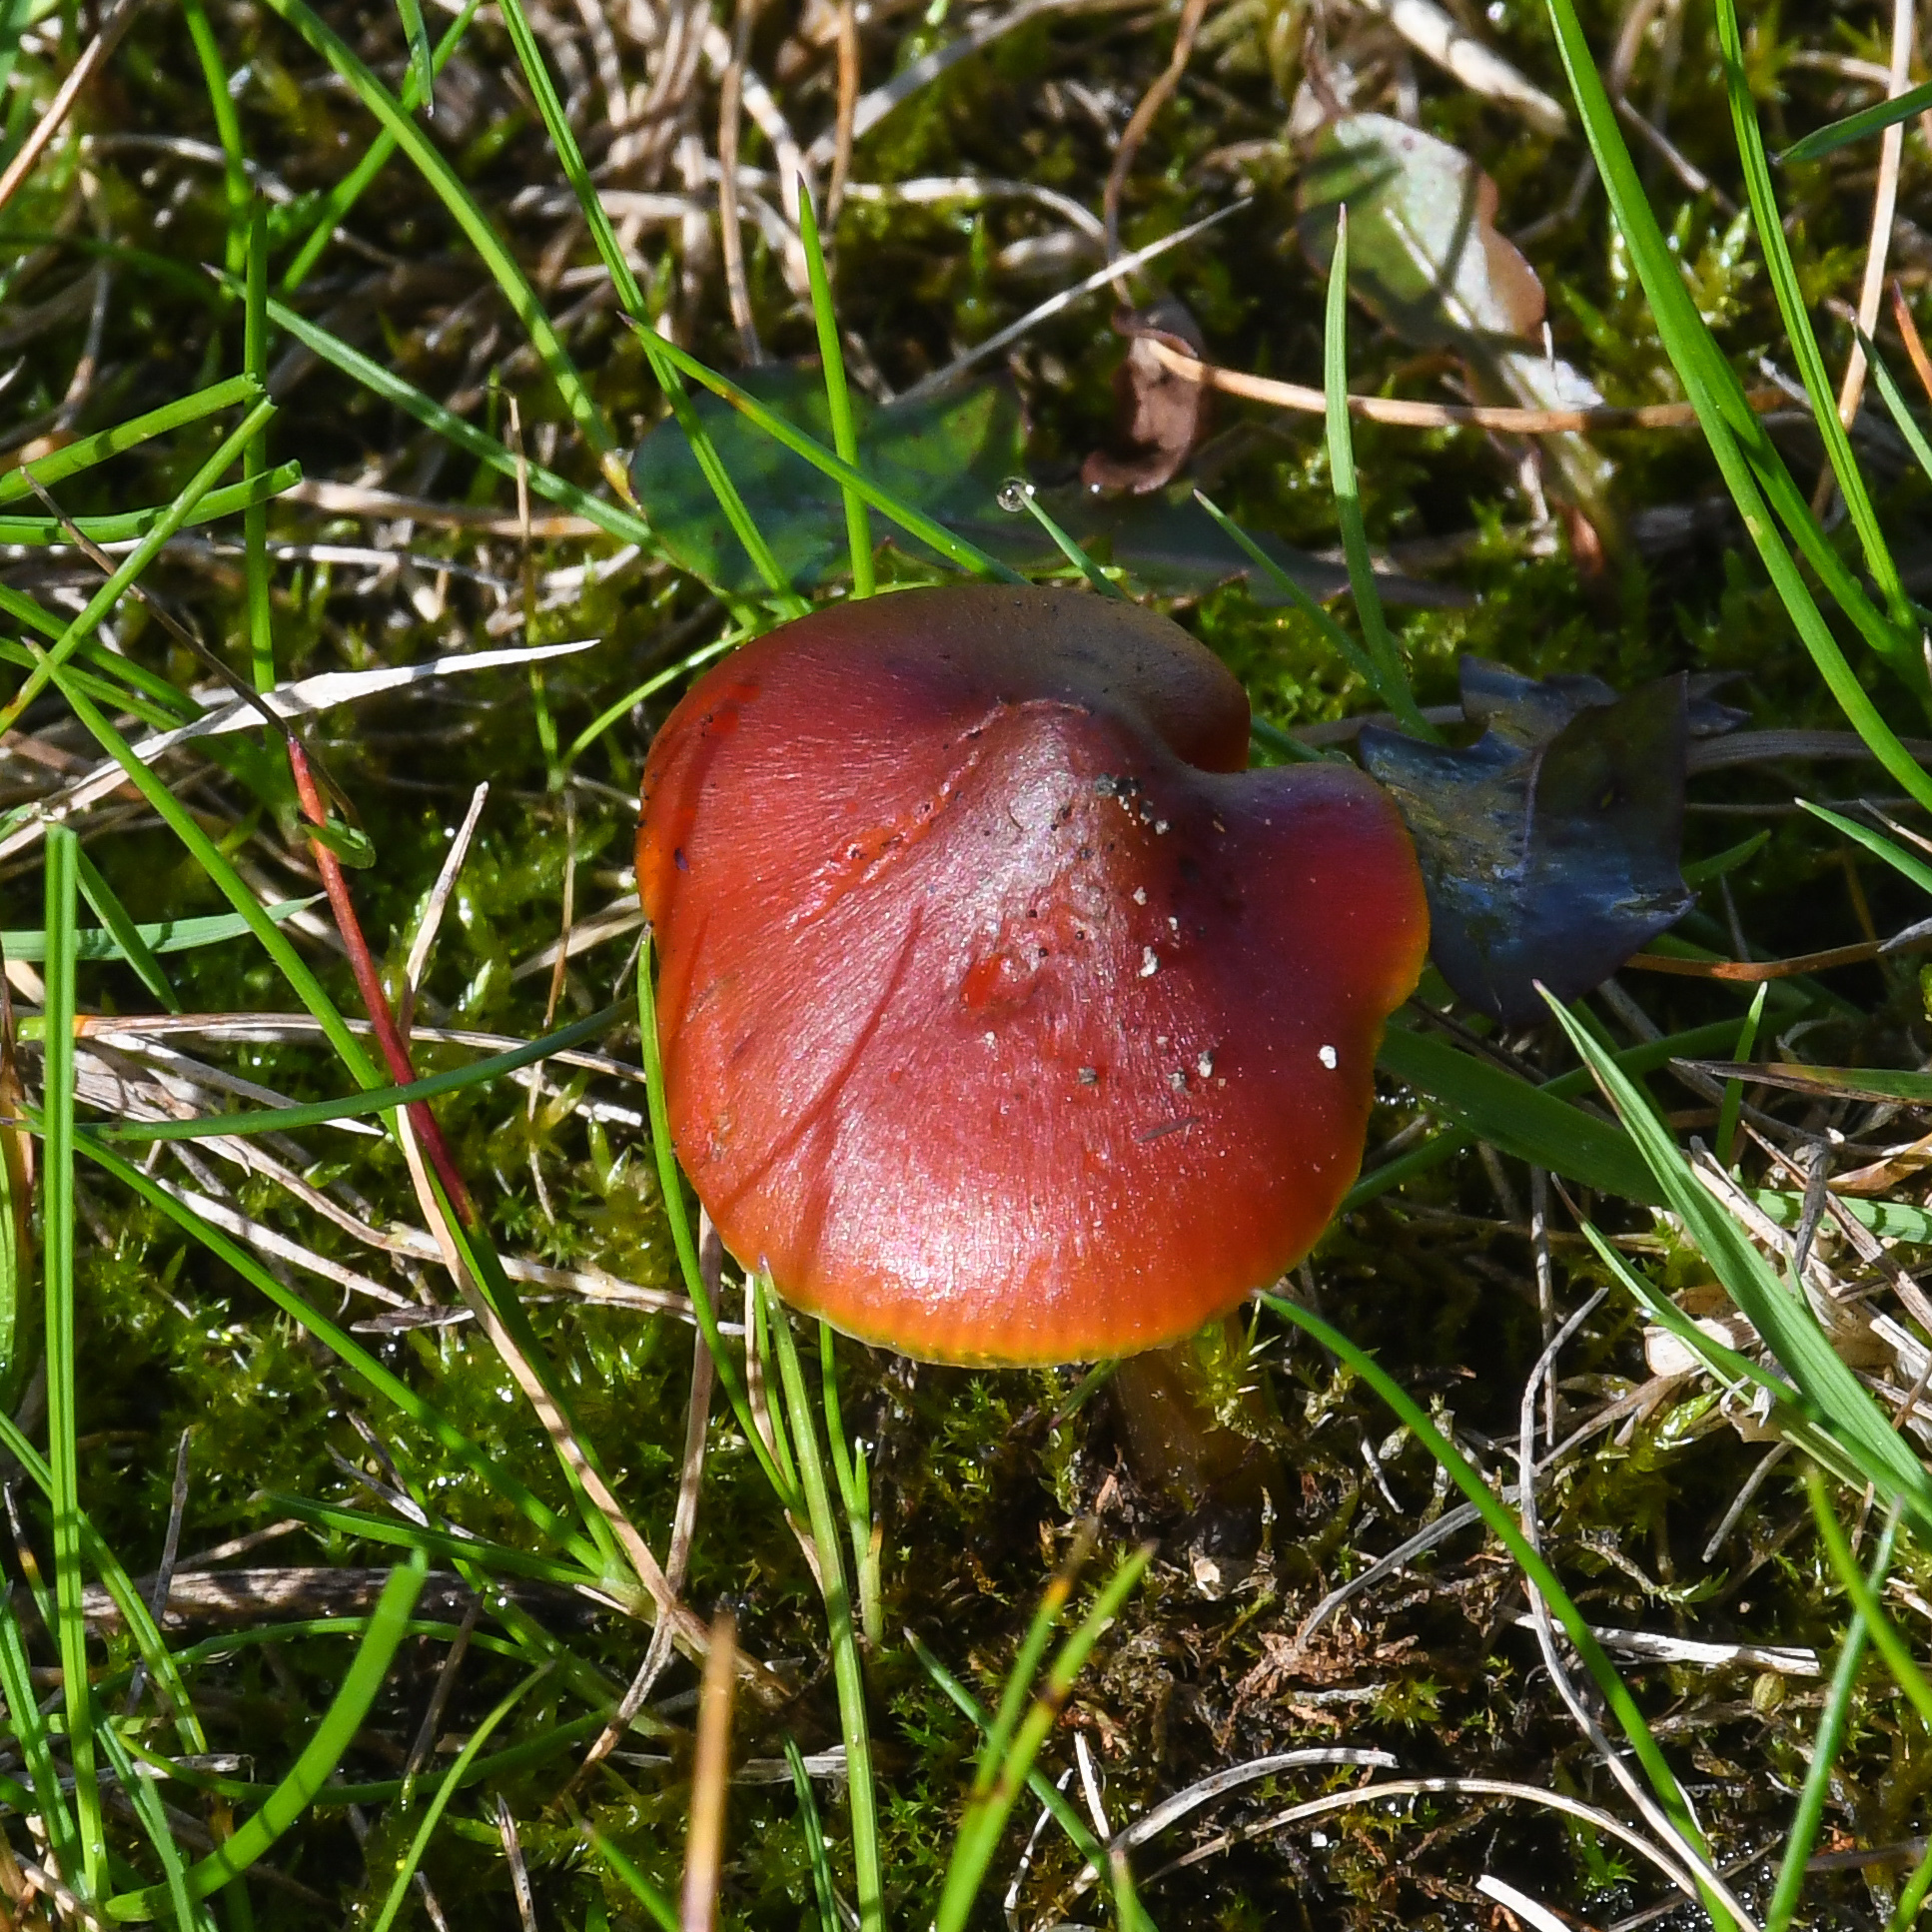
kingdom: Fungi
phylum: Basidiomycota
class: Agaricomycetes
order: Agaricales
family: Hygrophoraceae
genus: Hygrocybe
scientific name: Hygrocybe conica
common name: Blackening wax-cap
